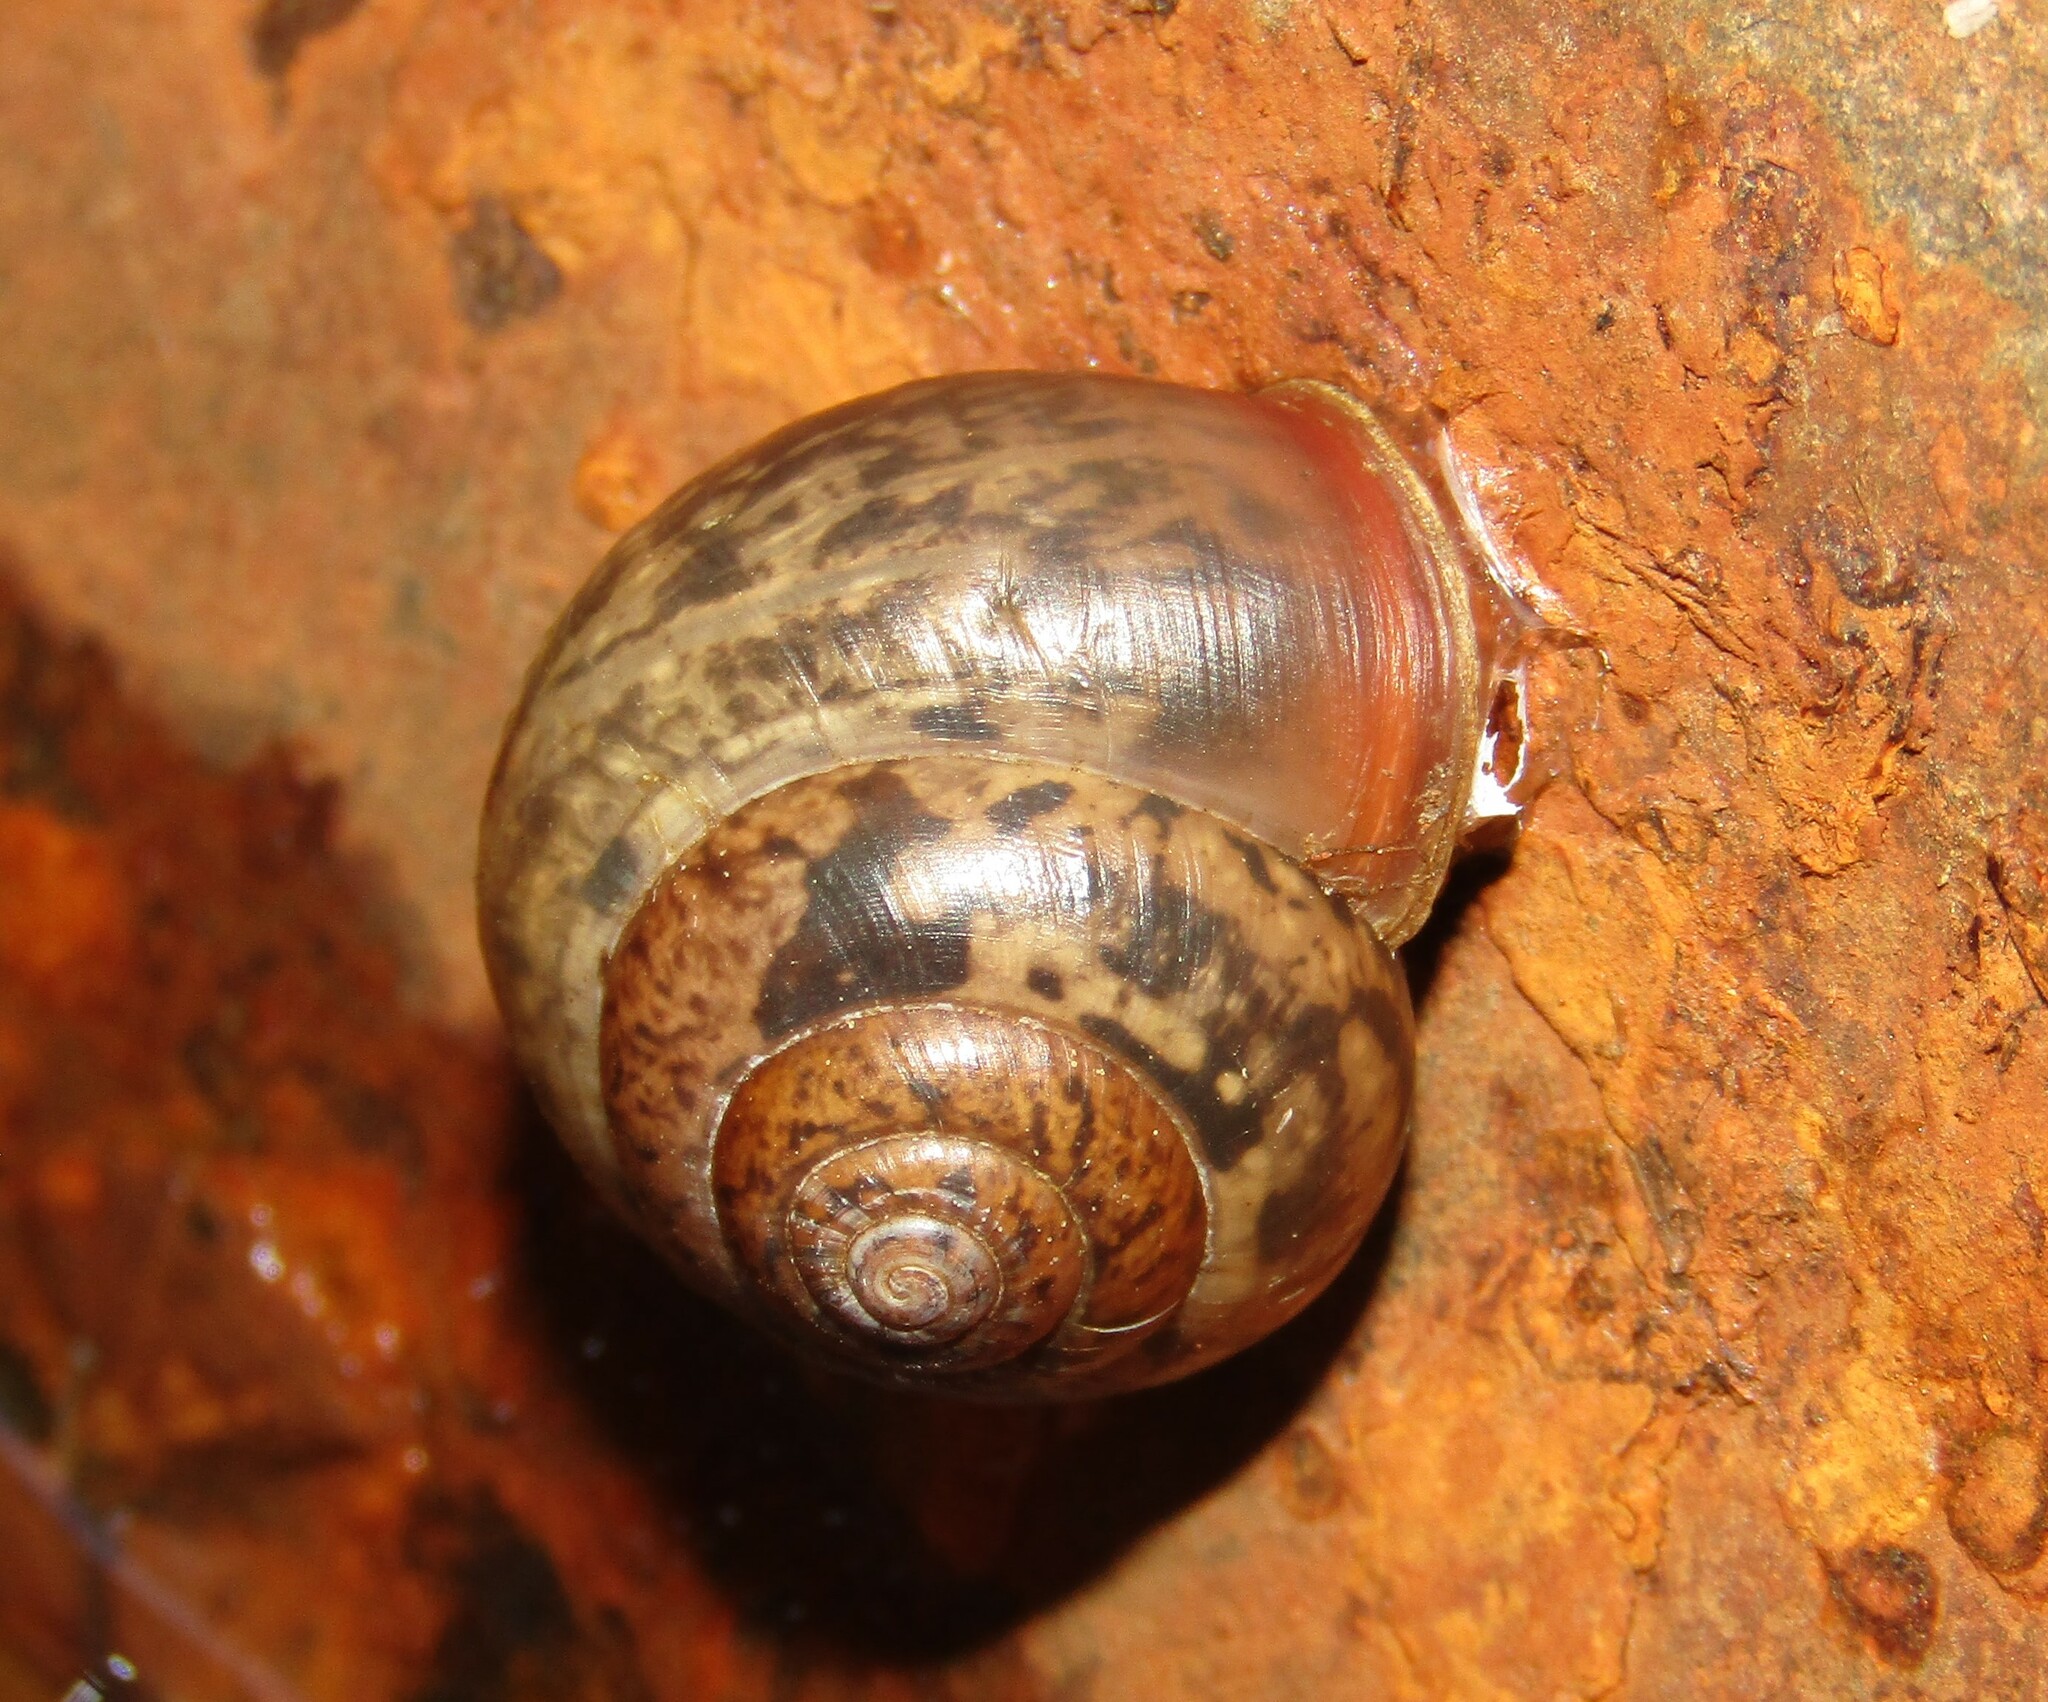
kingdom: Animalia
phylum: Mollusca
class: Gastropoda
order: Stylommatophora
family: Camaenidae
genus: Fruticicola
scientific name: Fruticicola fruticum
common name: Bush snail
